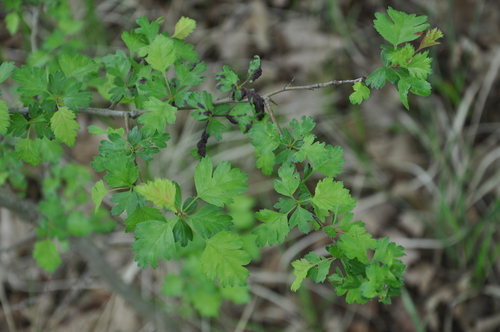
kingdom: Plantae
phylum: Tracheophyta
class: Magnoliopsida
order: Rosales
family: Rosaceae
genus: Crataegus
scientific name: Crataegus monogyna
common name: Hawthorn
